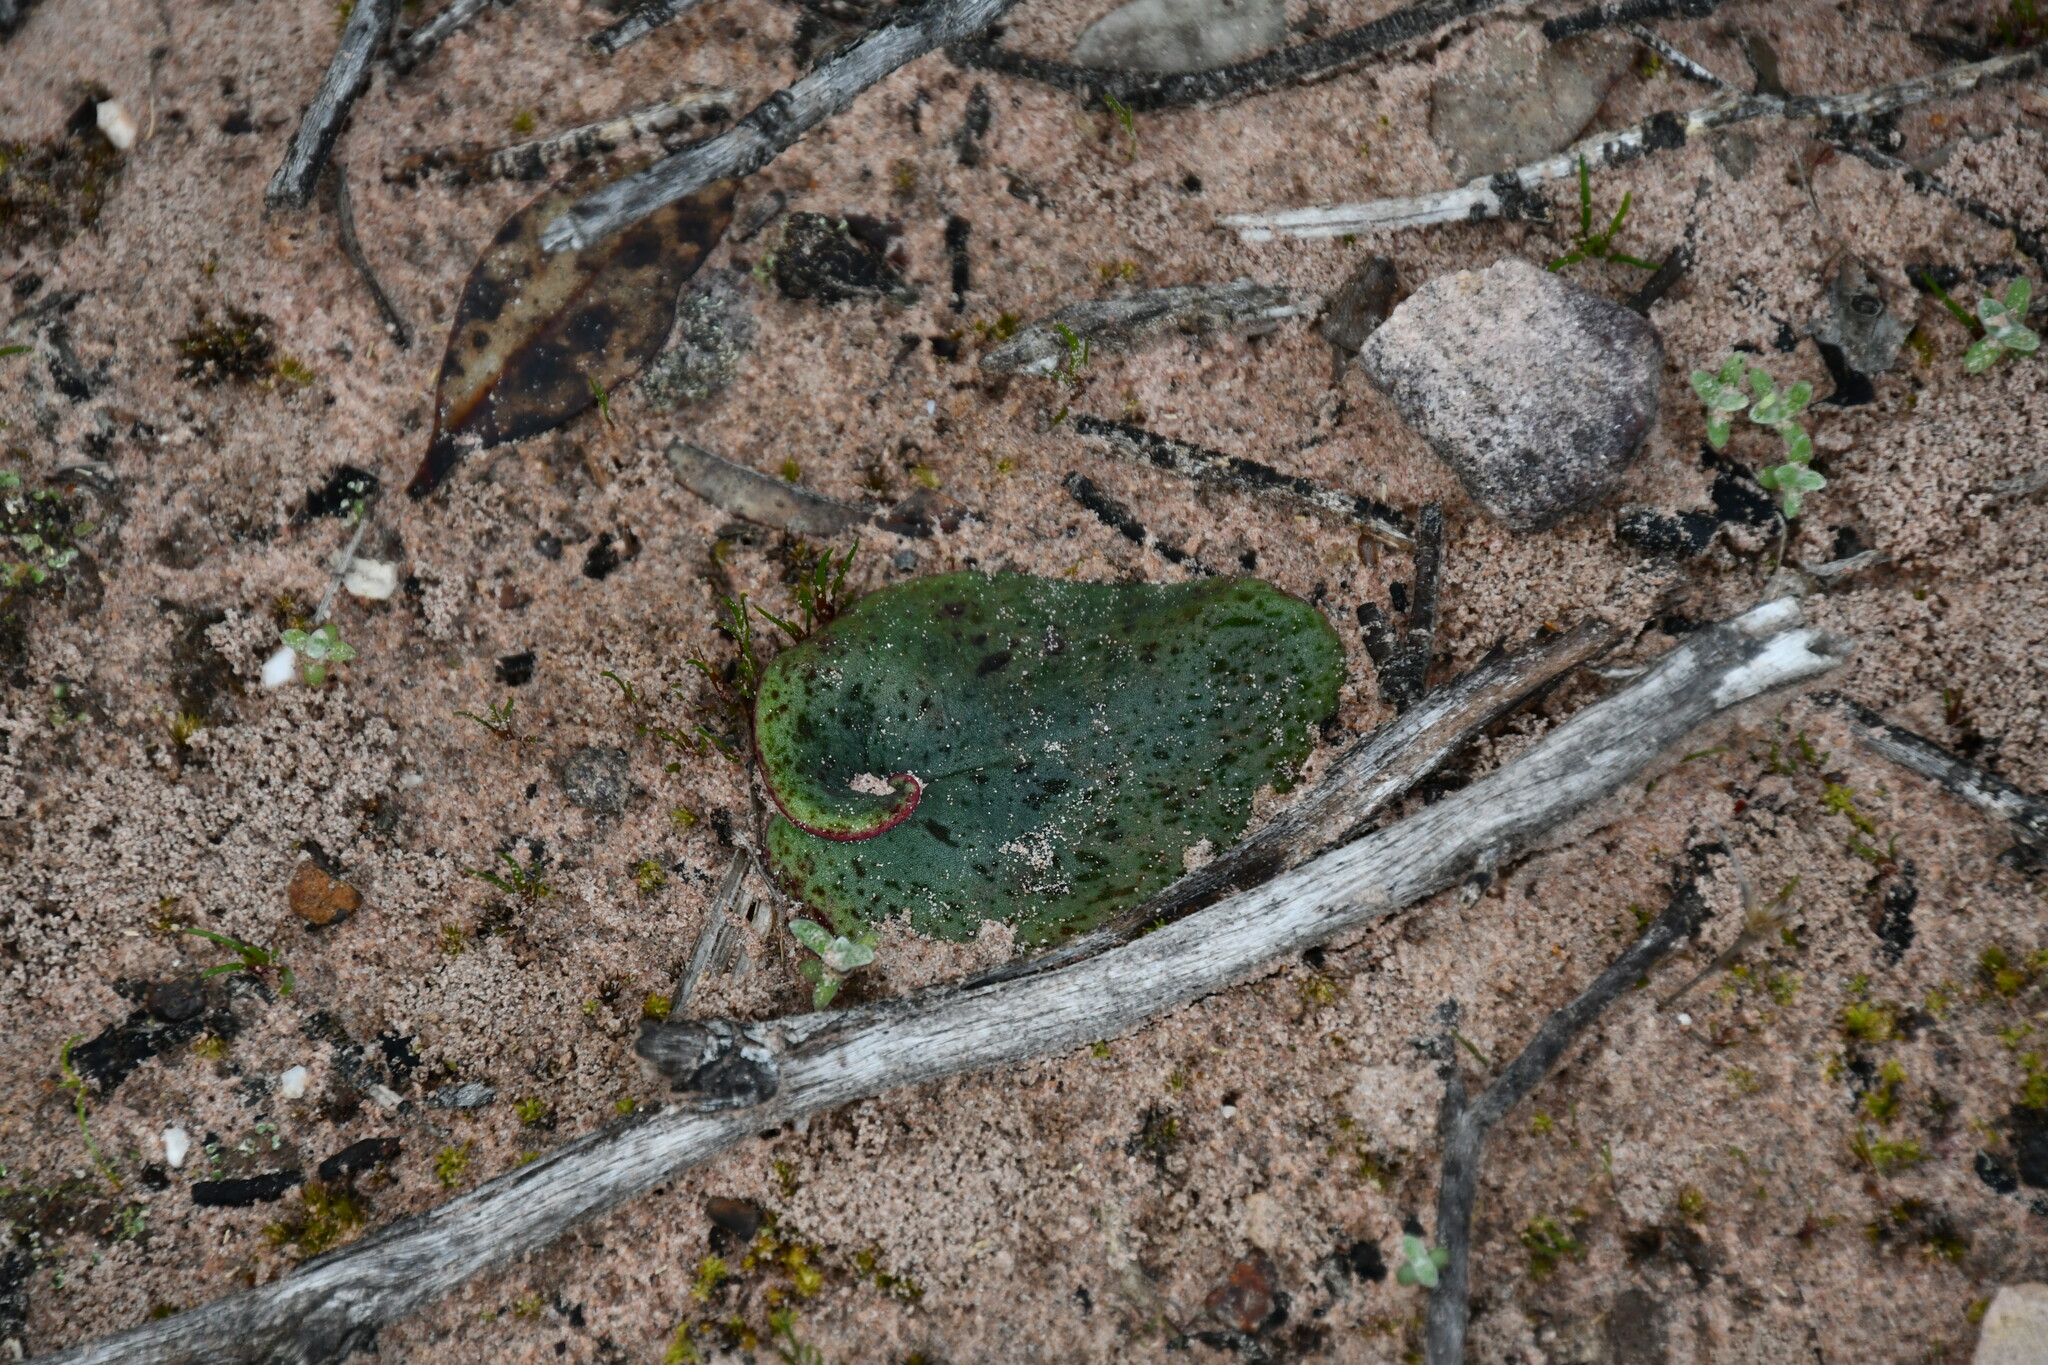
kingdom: Plantae
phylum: Tracheophyta
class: Liliopsida
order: Asparagales
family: Orchidaceae
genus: Pyrorchis
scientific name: Pyrorchis nigricans
